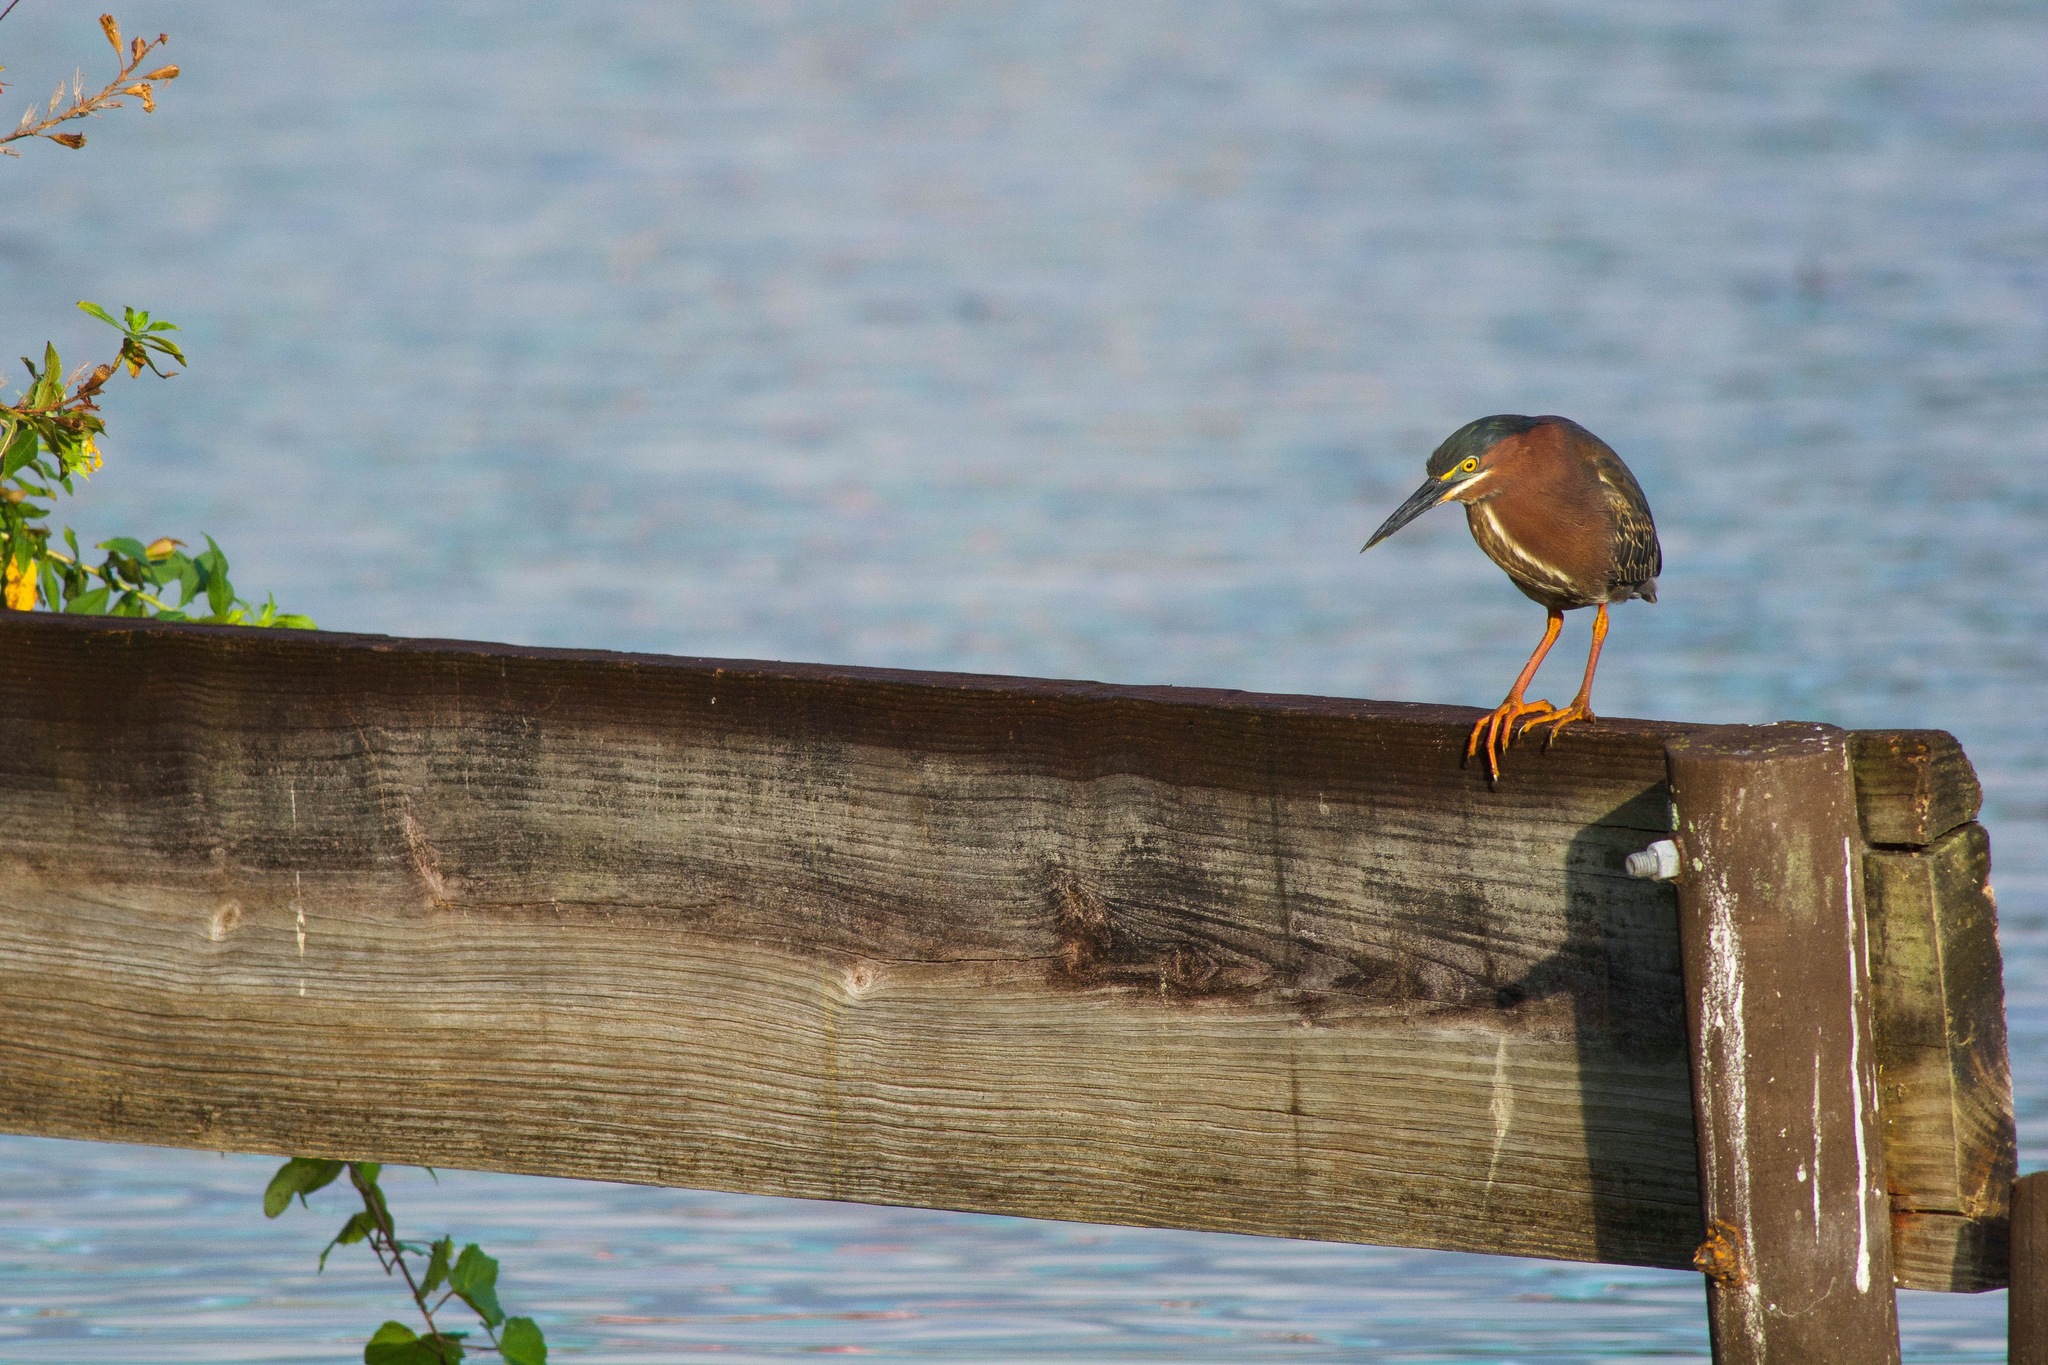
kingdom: Animalia
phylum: Chordata
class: Aves
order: Pelecaniformes
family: Ardeidae
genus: Butorides
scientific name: Butorides virescens
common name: Green heron
